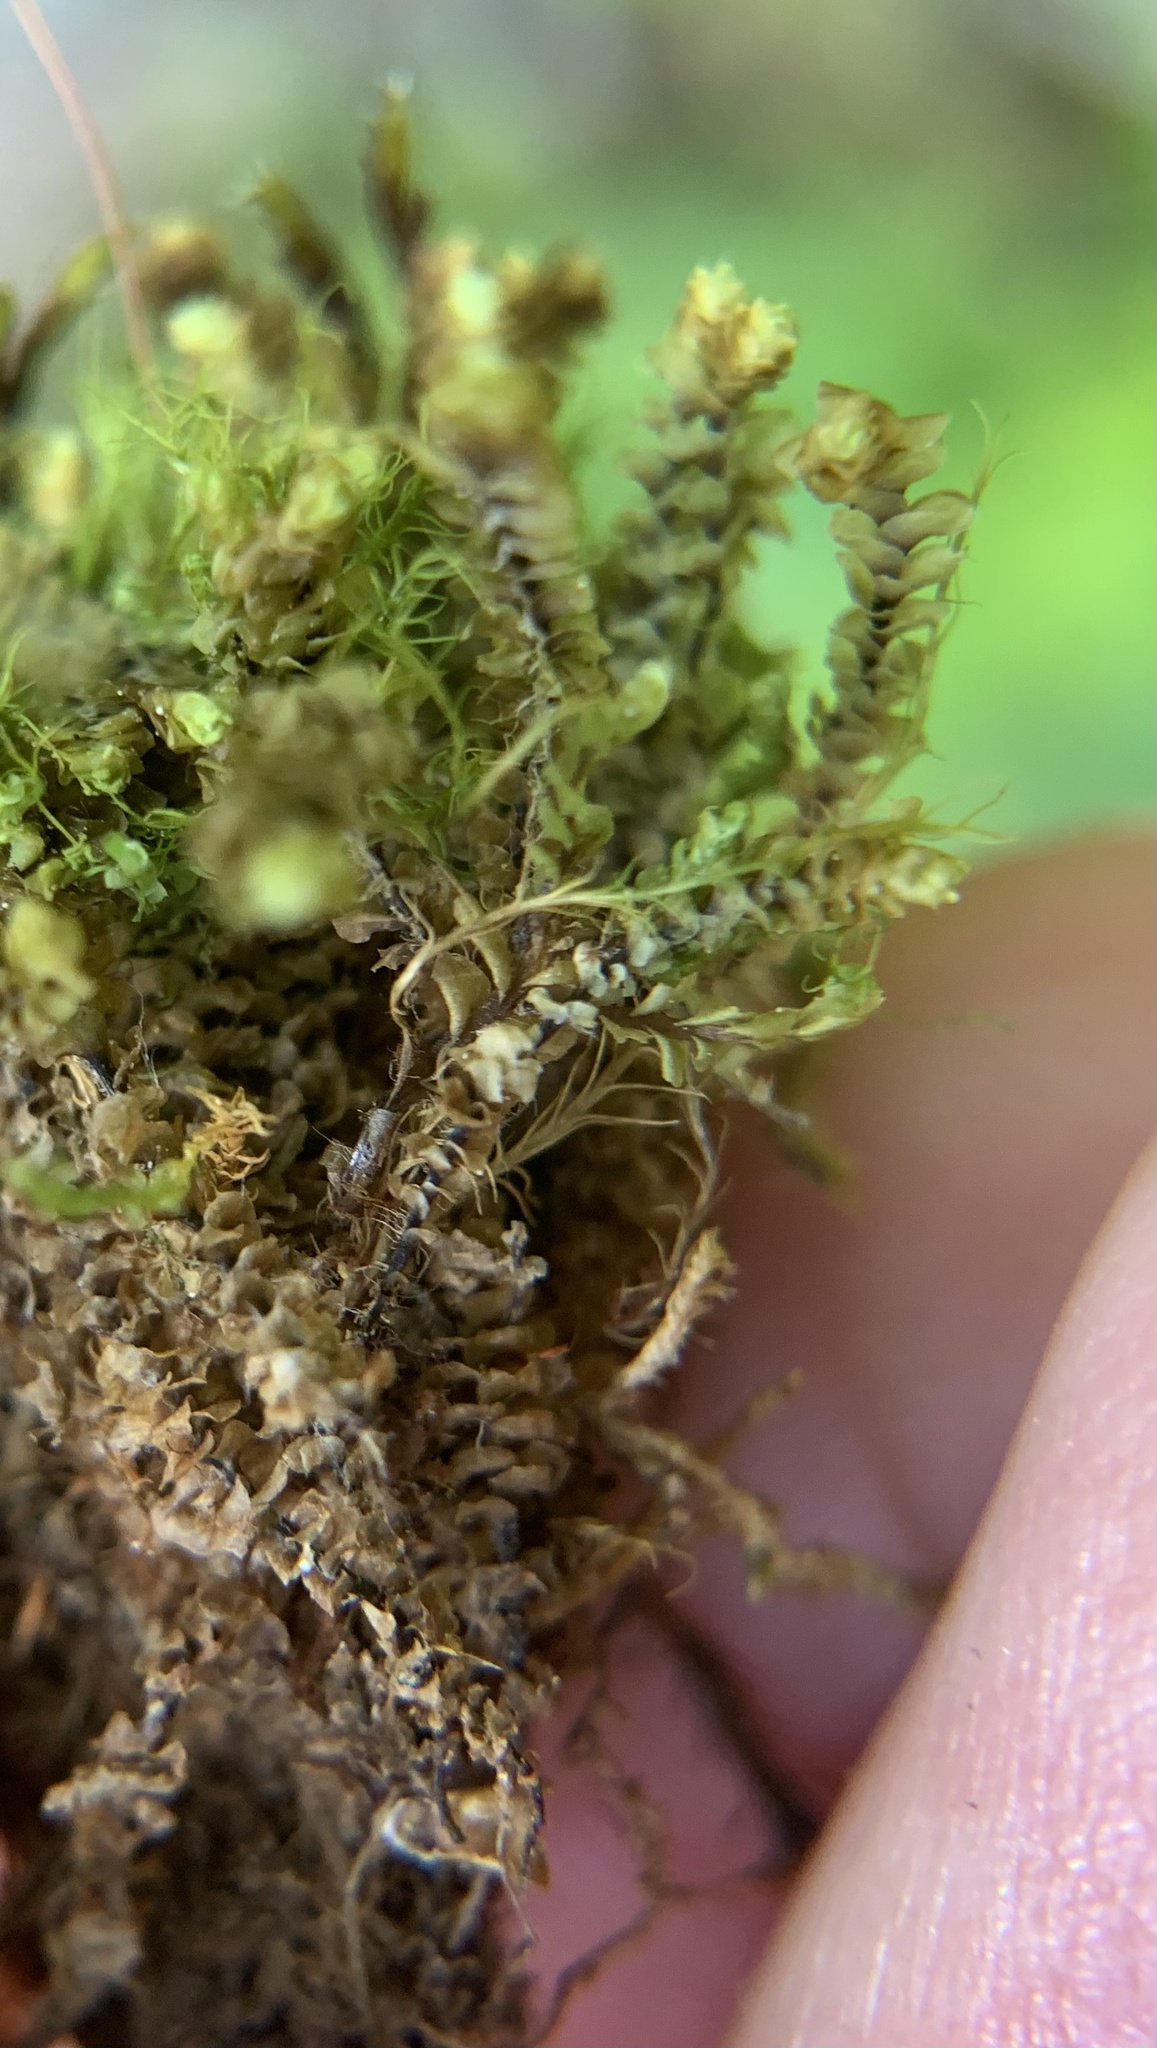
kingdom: Plantae
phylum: Marchantiophyta
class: Jungermanniopsida
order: Jungermanniales
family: Scapaniaceae
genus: Scapania
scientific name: Scapania aequiloba
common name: Lesser rough earwort
